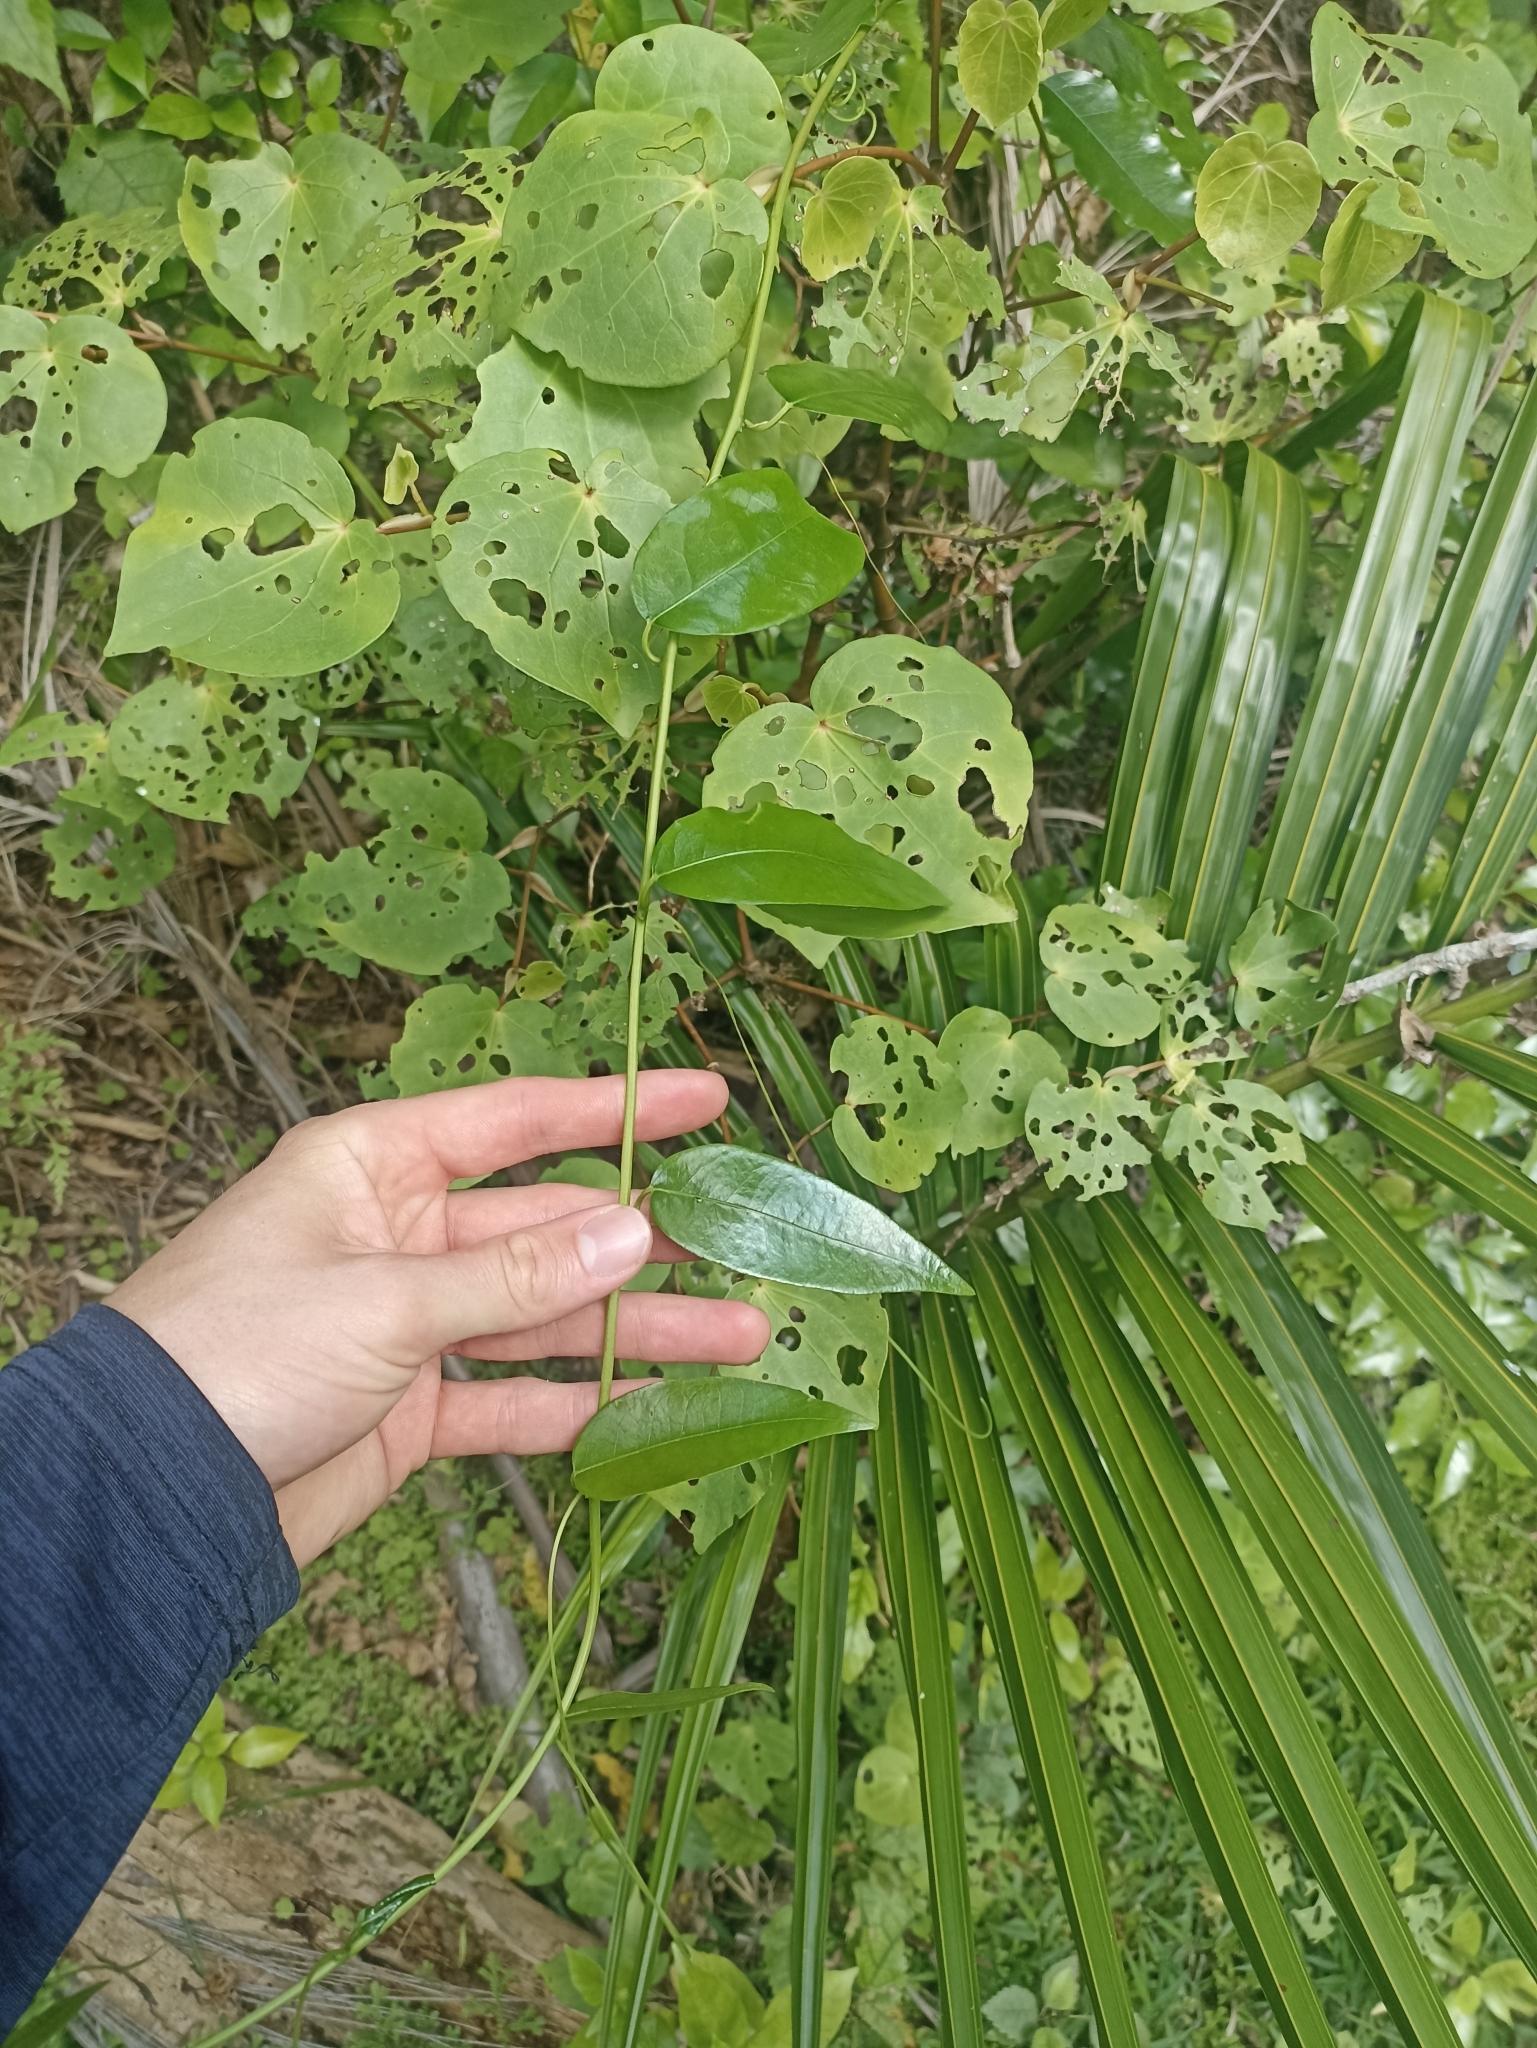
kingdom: Plantae
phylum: Tracheophyta
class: Magnoliopsida
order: Malpighiales
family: Passifloraceae
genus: Passiflora
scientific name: Passiflora tetrandra
